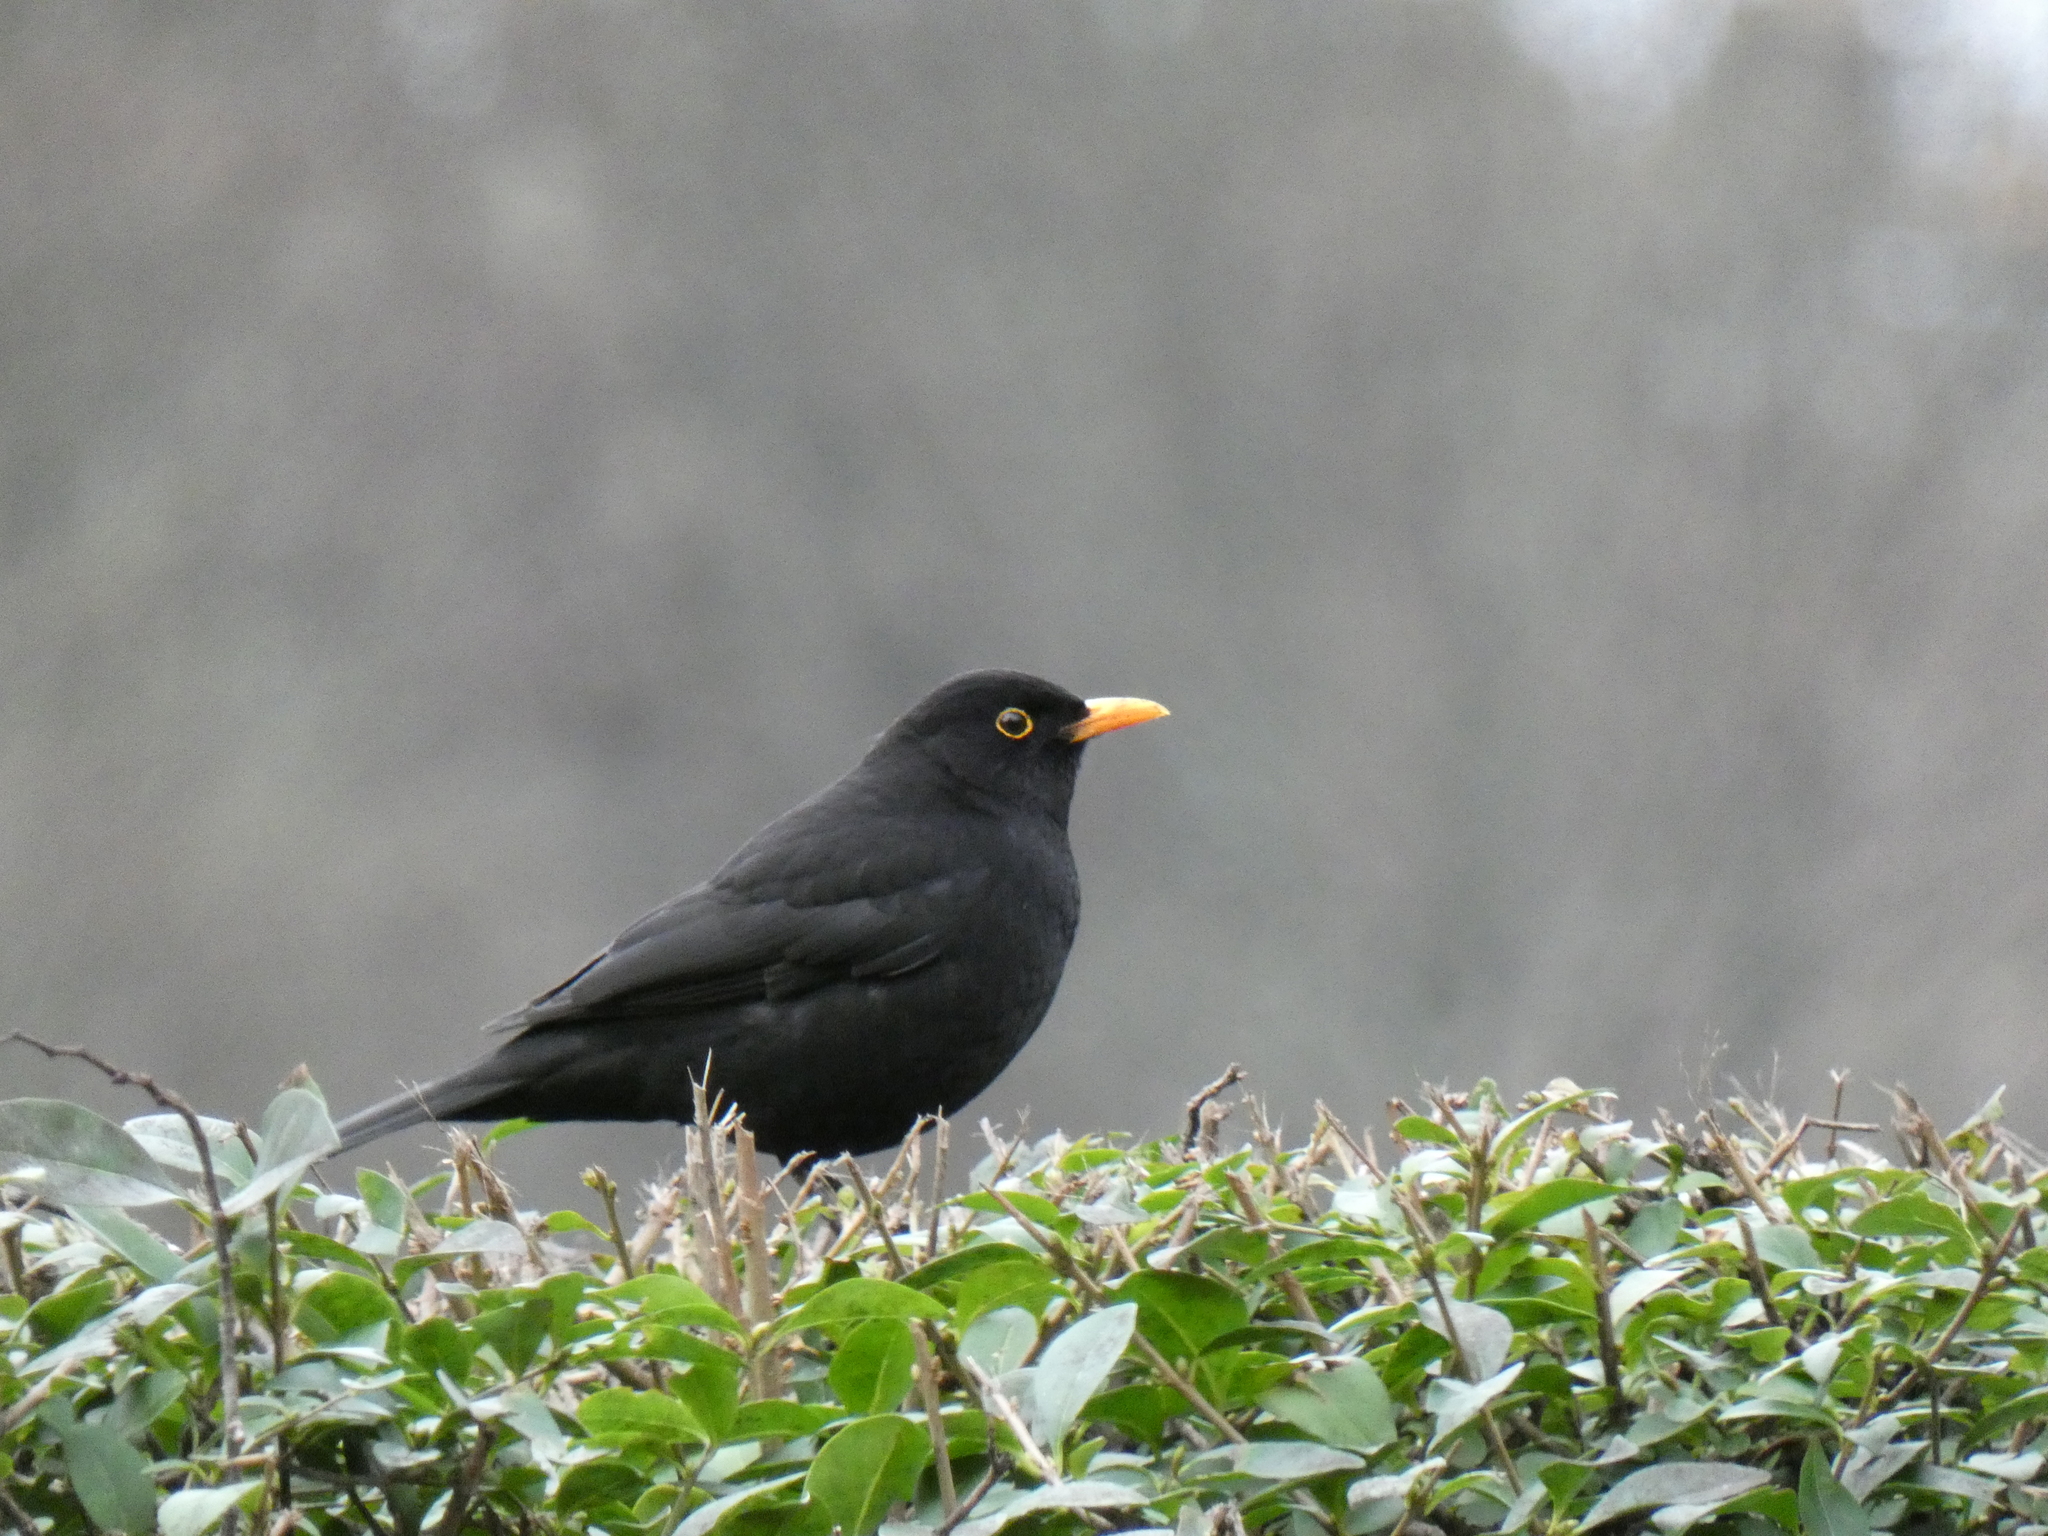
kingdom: Animalia
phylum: Chordata
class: Aves
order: Passeriformes
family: Turdidae
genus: Turdus
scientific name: Turdus merula
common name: Common blackbird
